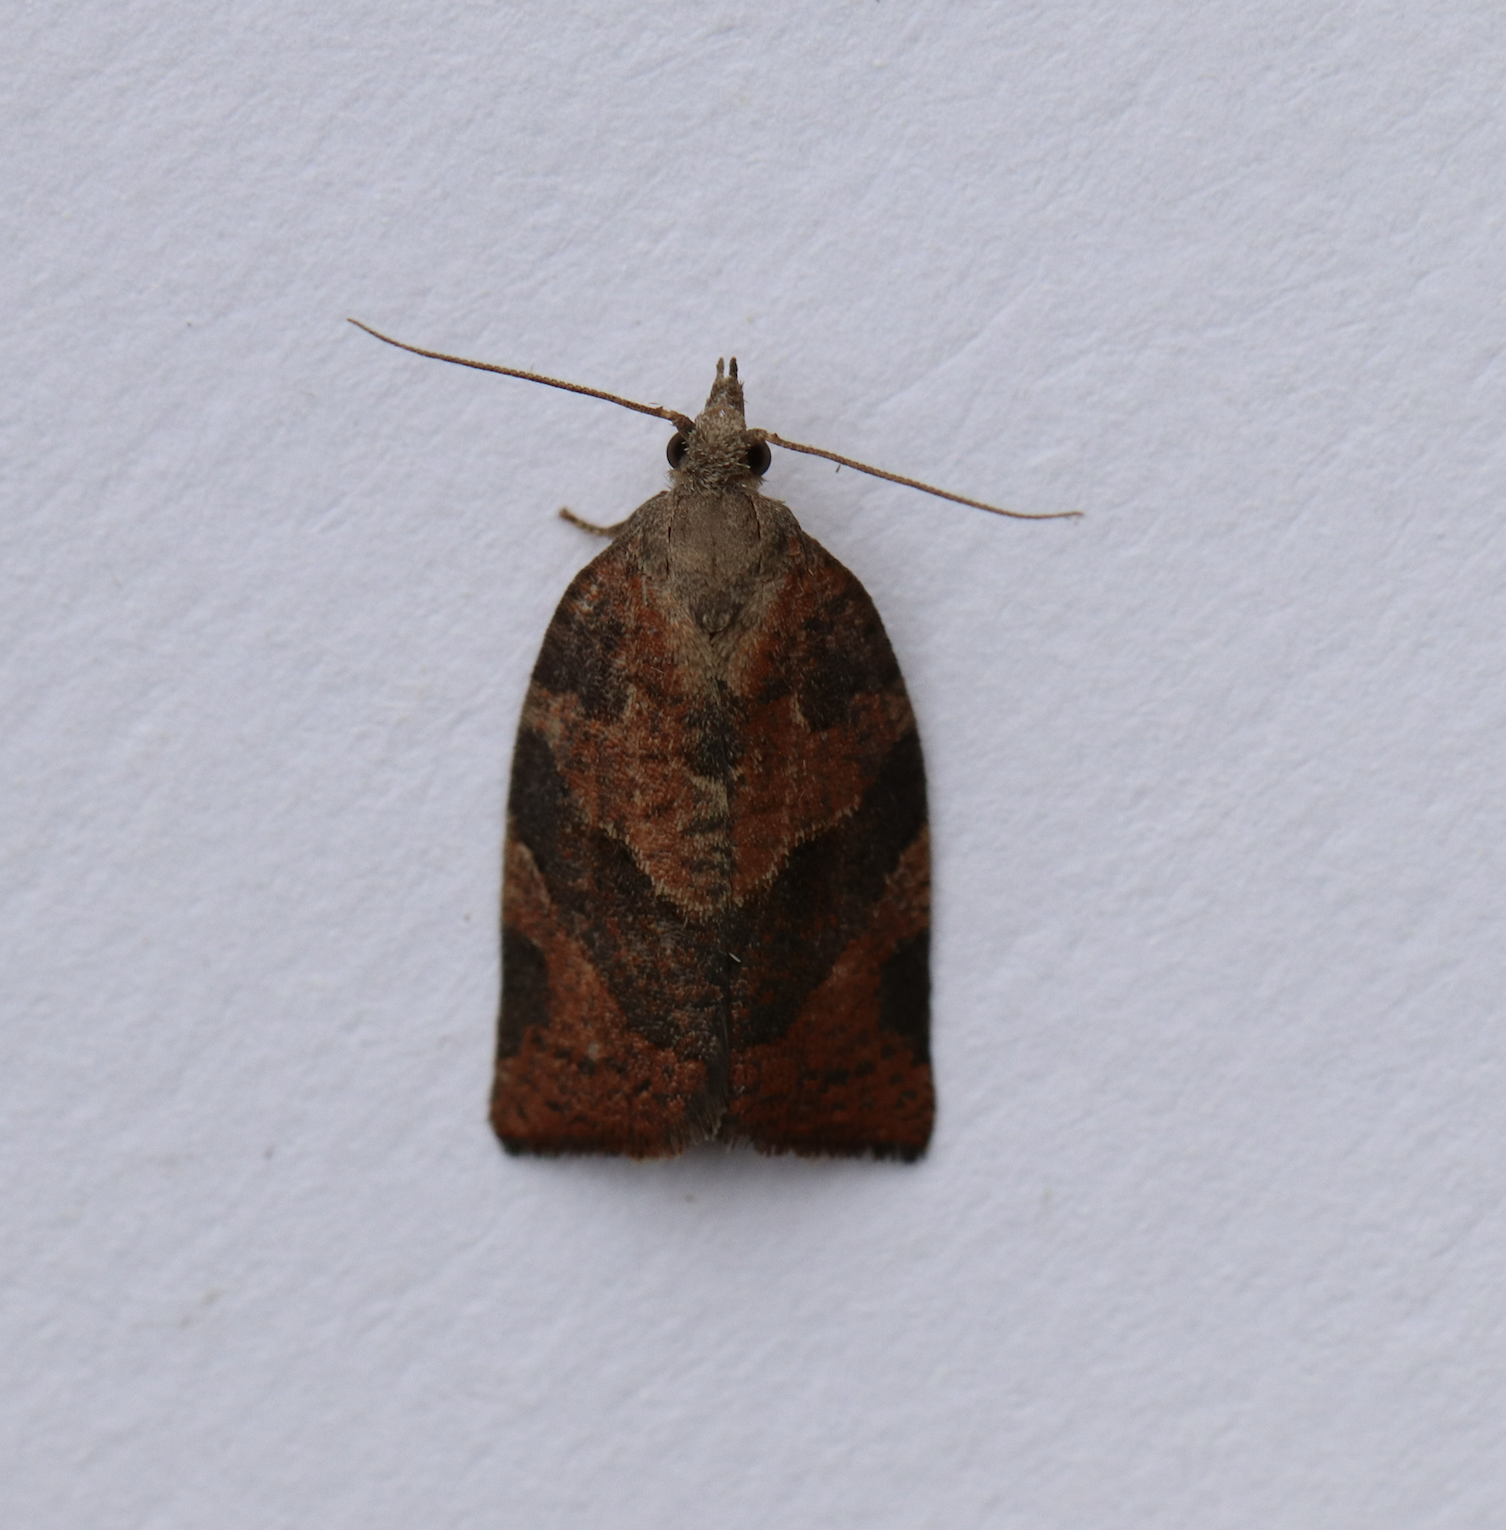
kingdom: Animalia
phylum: Arthropoda
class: Insecta
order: Lepidoptera
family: Tortricidae
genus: Pandemis
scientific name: Pandemis canadana
